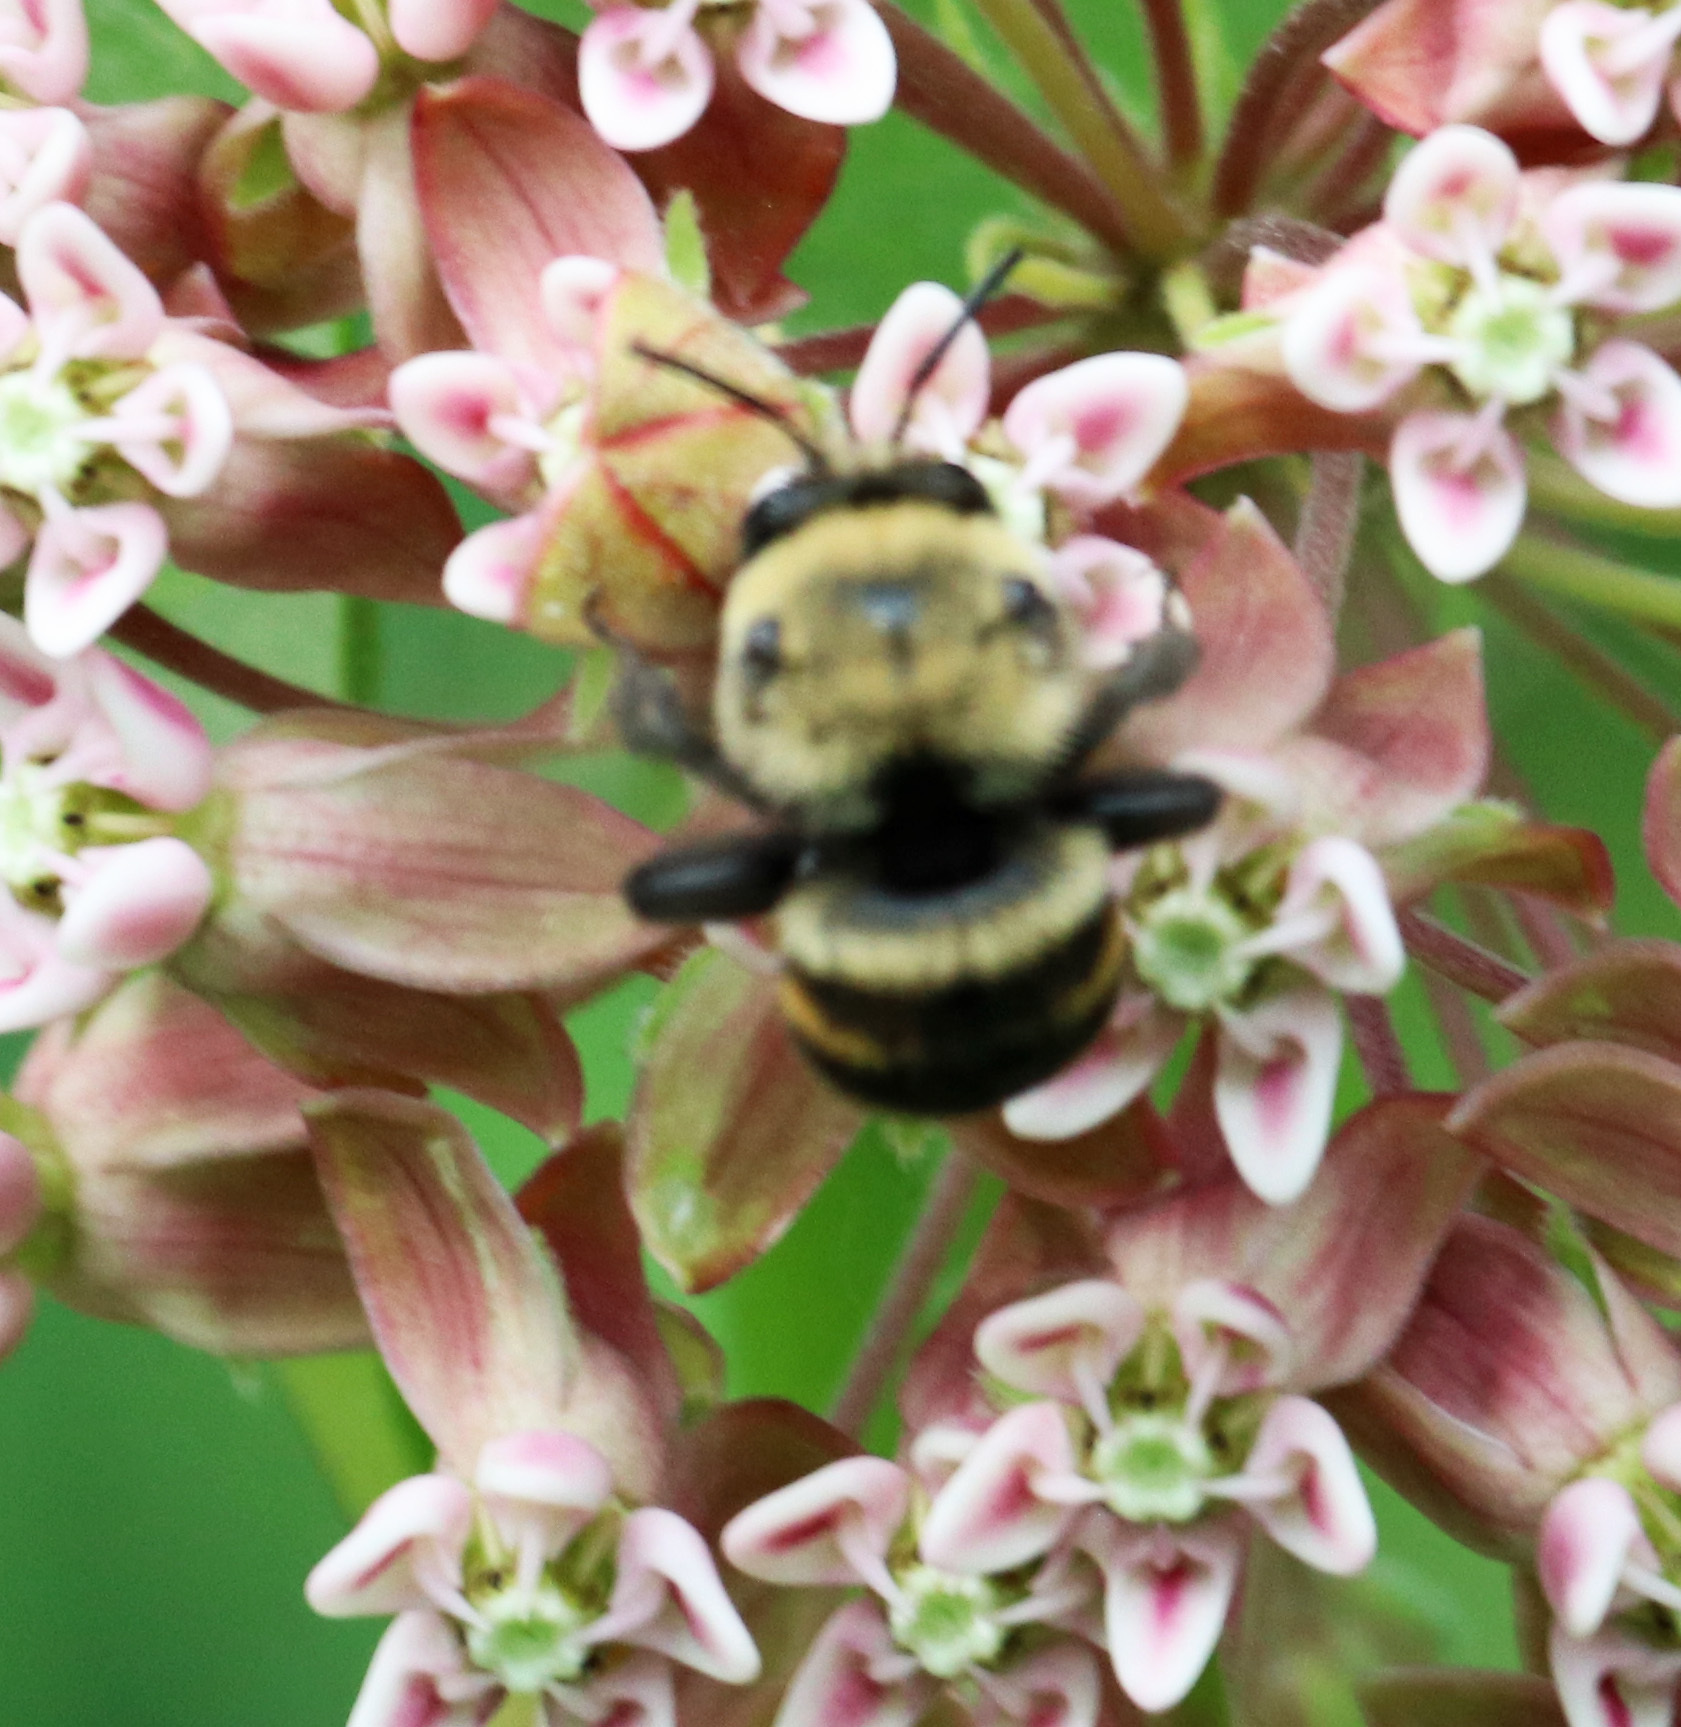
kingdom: Animalia
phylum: Arthropoda
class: Insecta
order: Hymenoptera
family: Apidae
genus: Anthophora
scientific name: Anthophora abrupta
